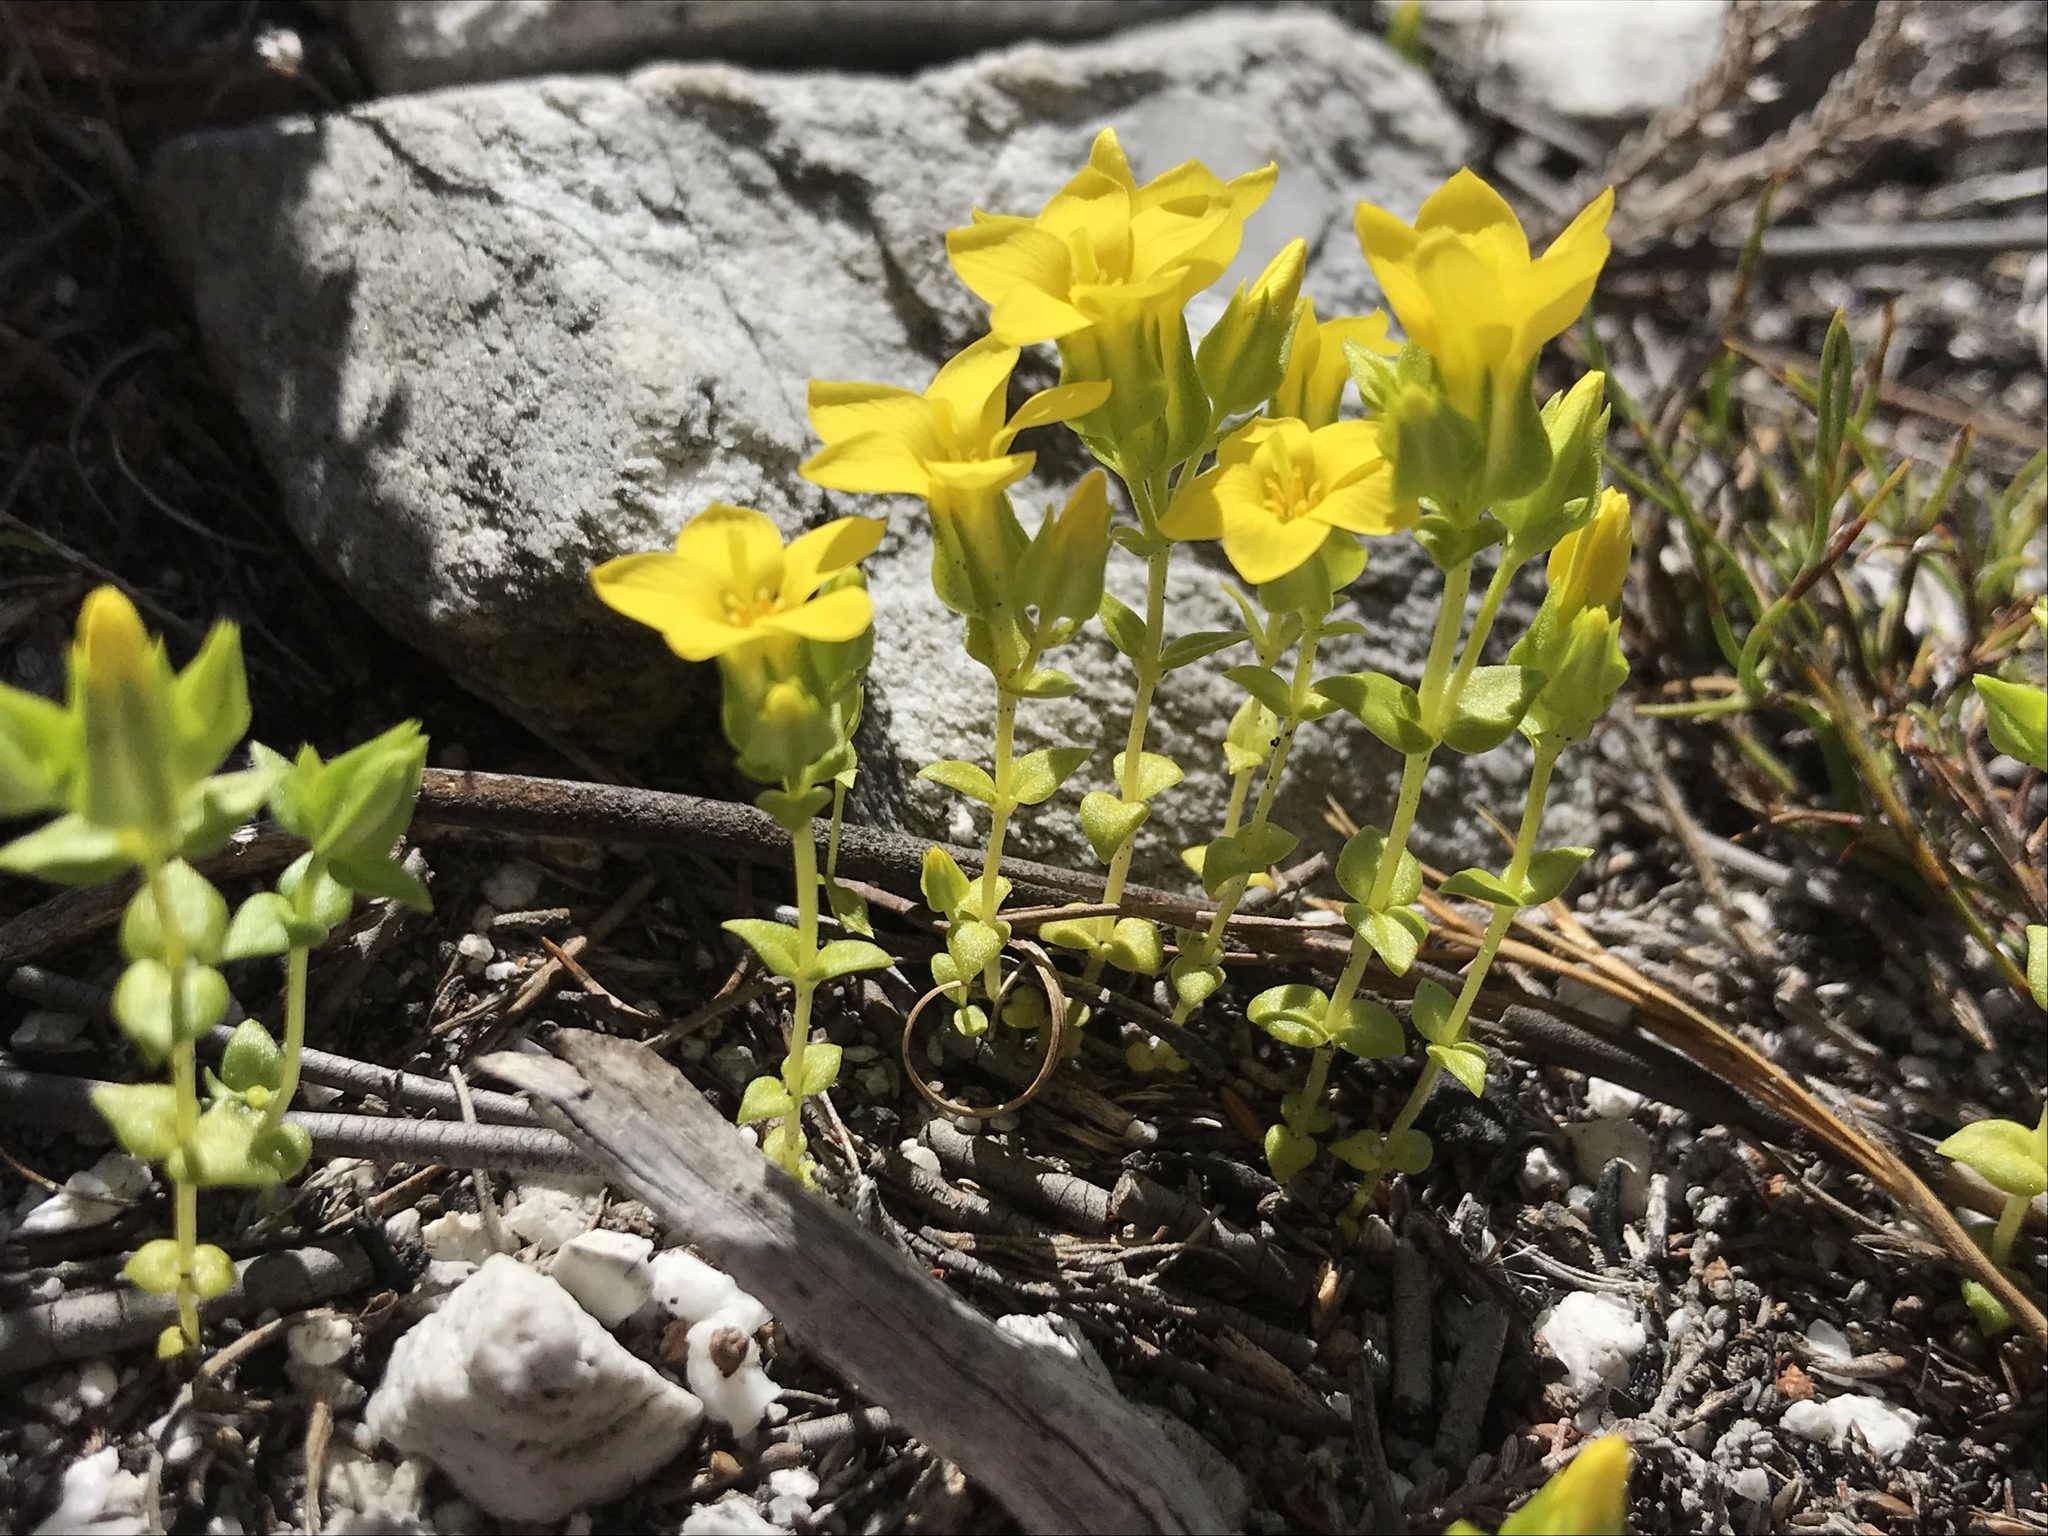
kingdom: Plantae
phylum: Tracheophyta
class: Magnoliopsida
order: Gentianales
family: Gentianaceae
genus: Sebaea
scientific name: Sebaea sulphurea
